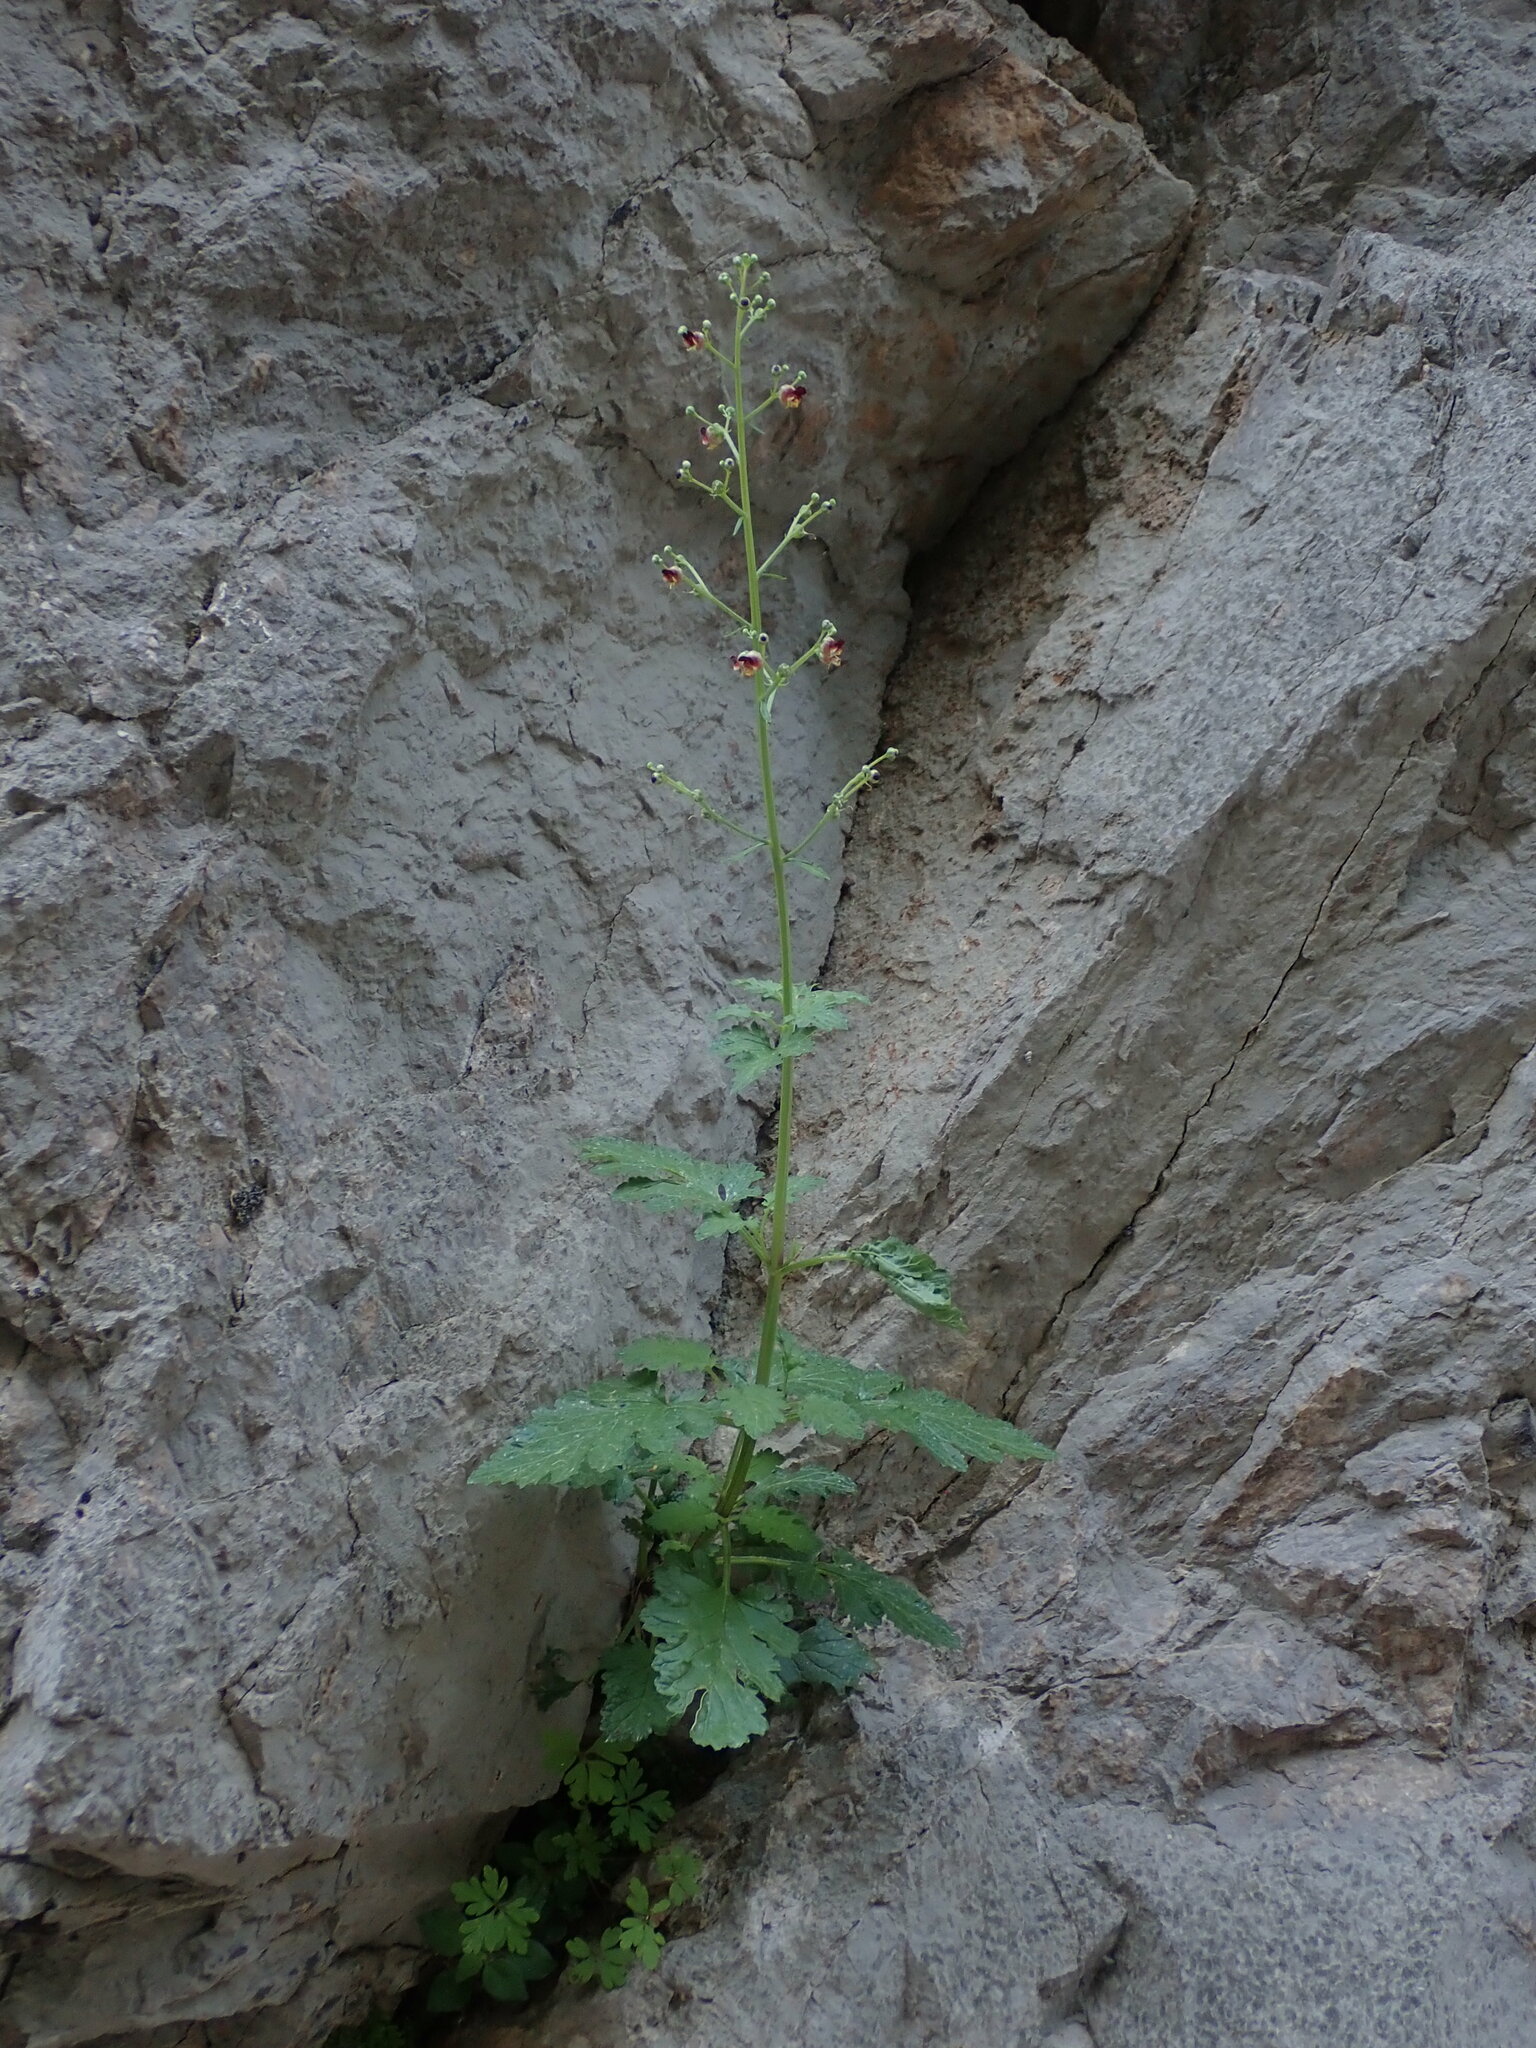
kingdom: Plantae
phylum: Tracheophyta
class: Magnoliopsida
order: Lamiales
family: Scrophulariaceae
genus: Scrophularia
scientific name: Scrophularia laciniata
